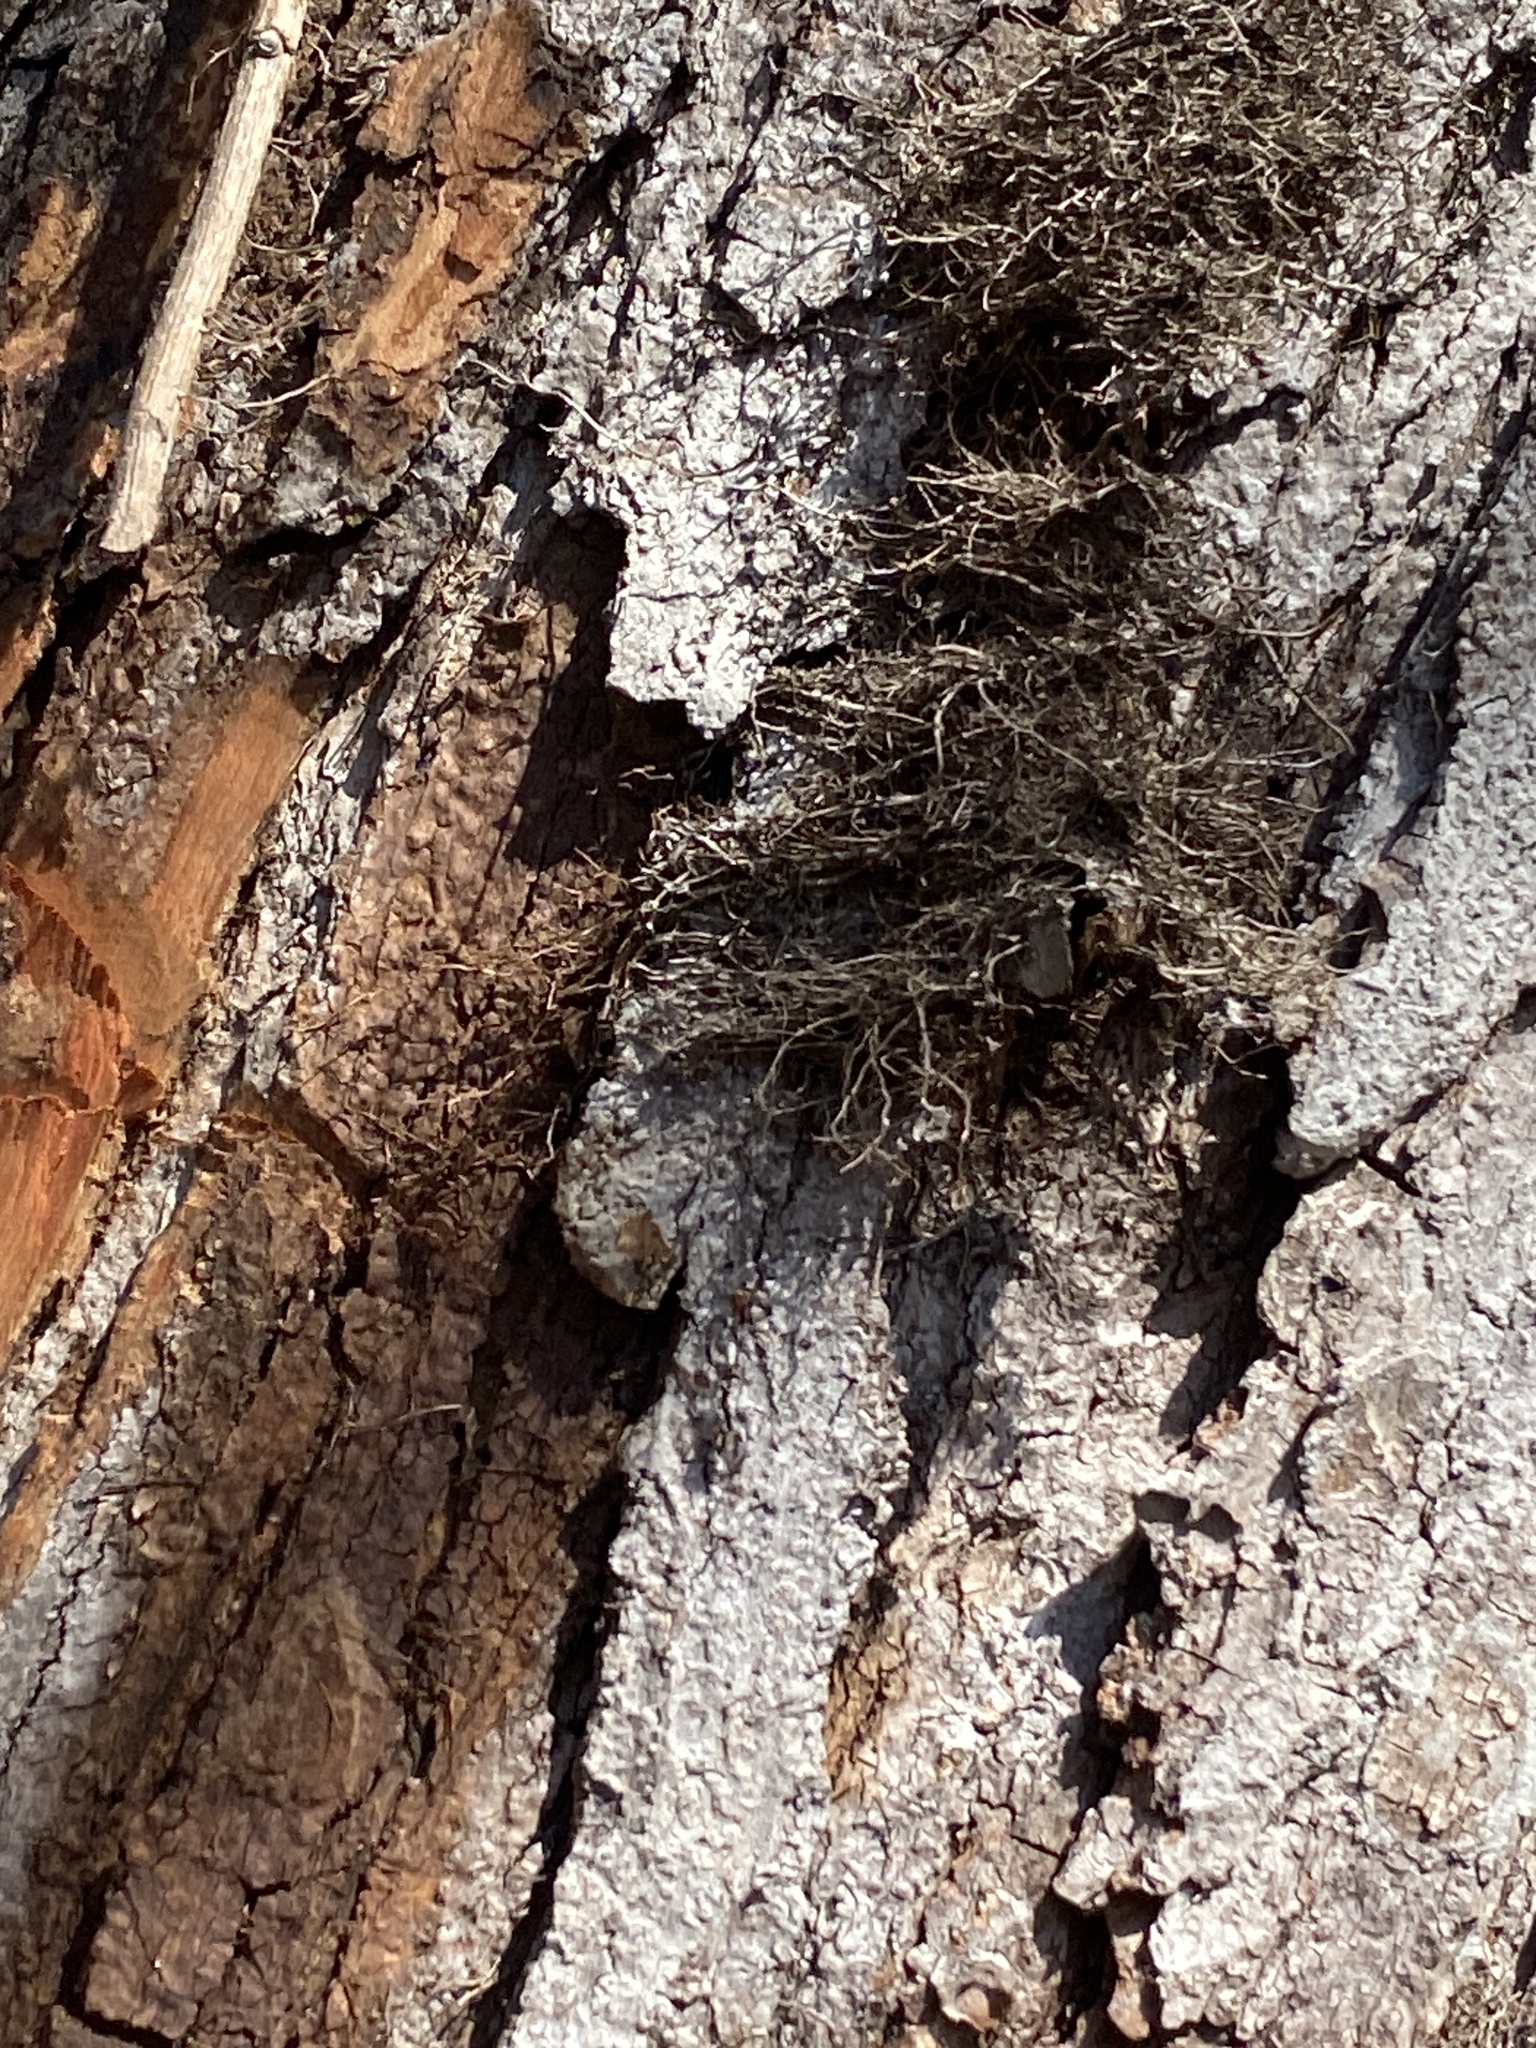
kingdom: Plantae
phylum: Tracheophyta
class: Magnoliopsida
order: Sapindales
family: Anacardiaceae
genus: Toxicodendron
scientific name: Toxicodendron radicans
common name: Poison ivy
